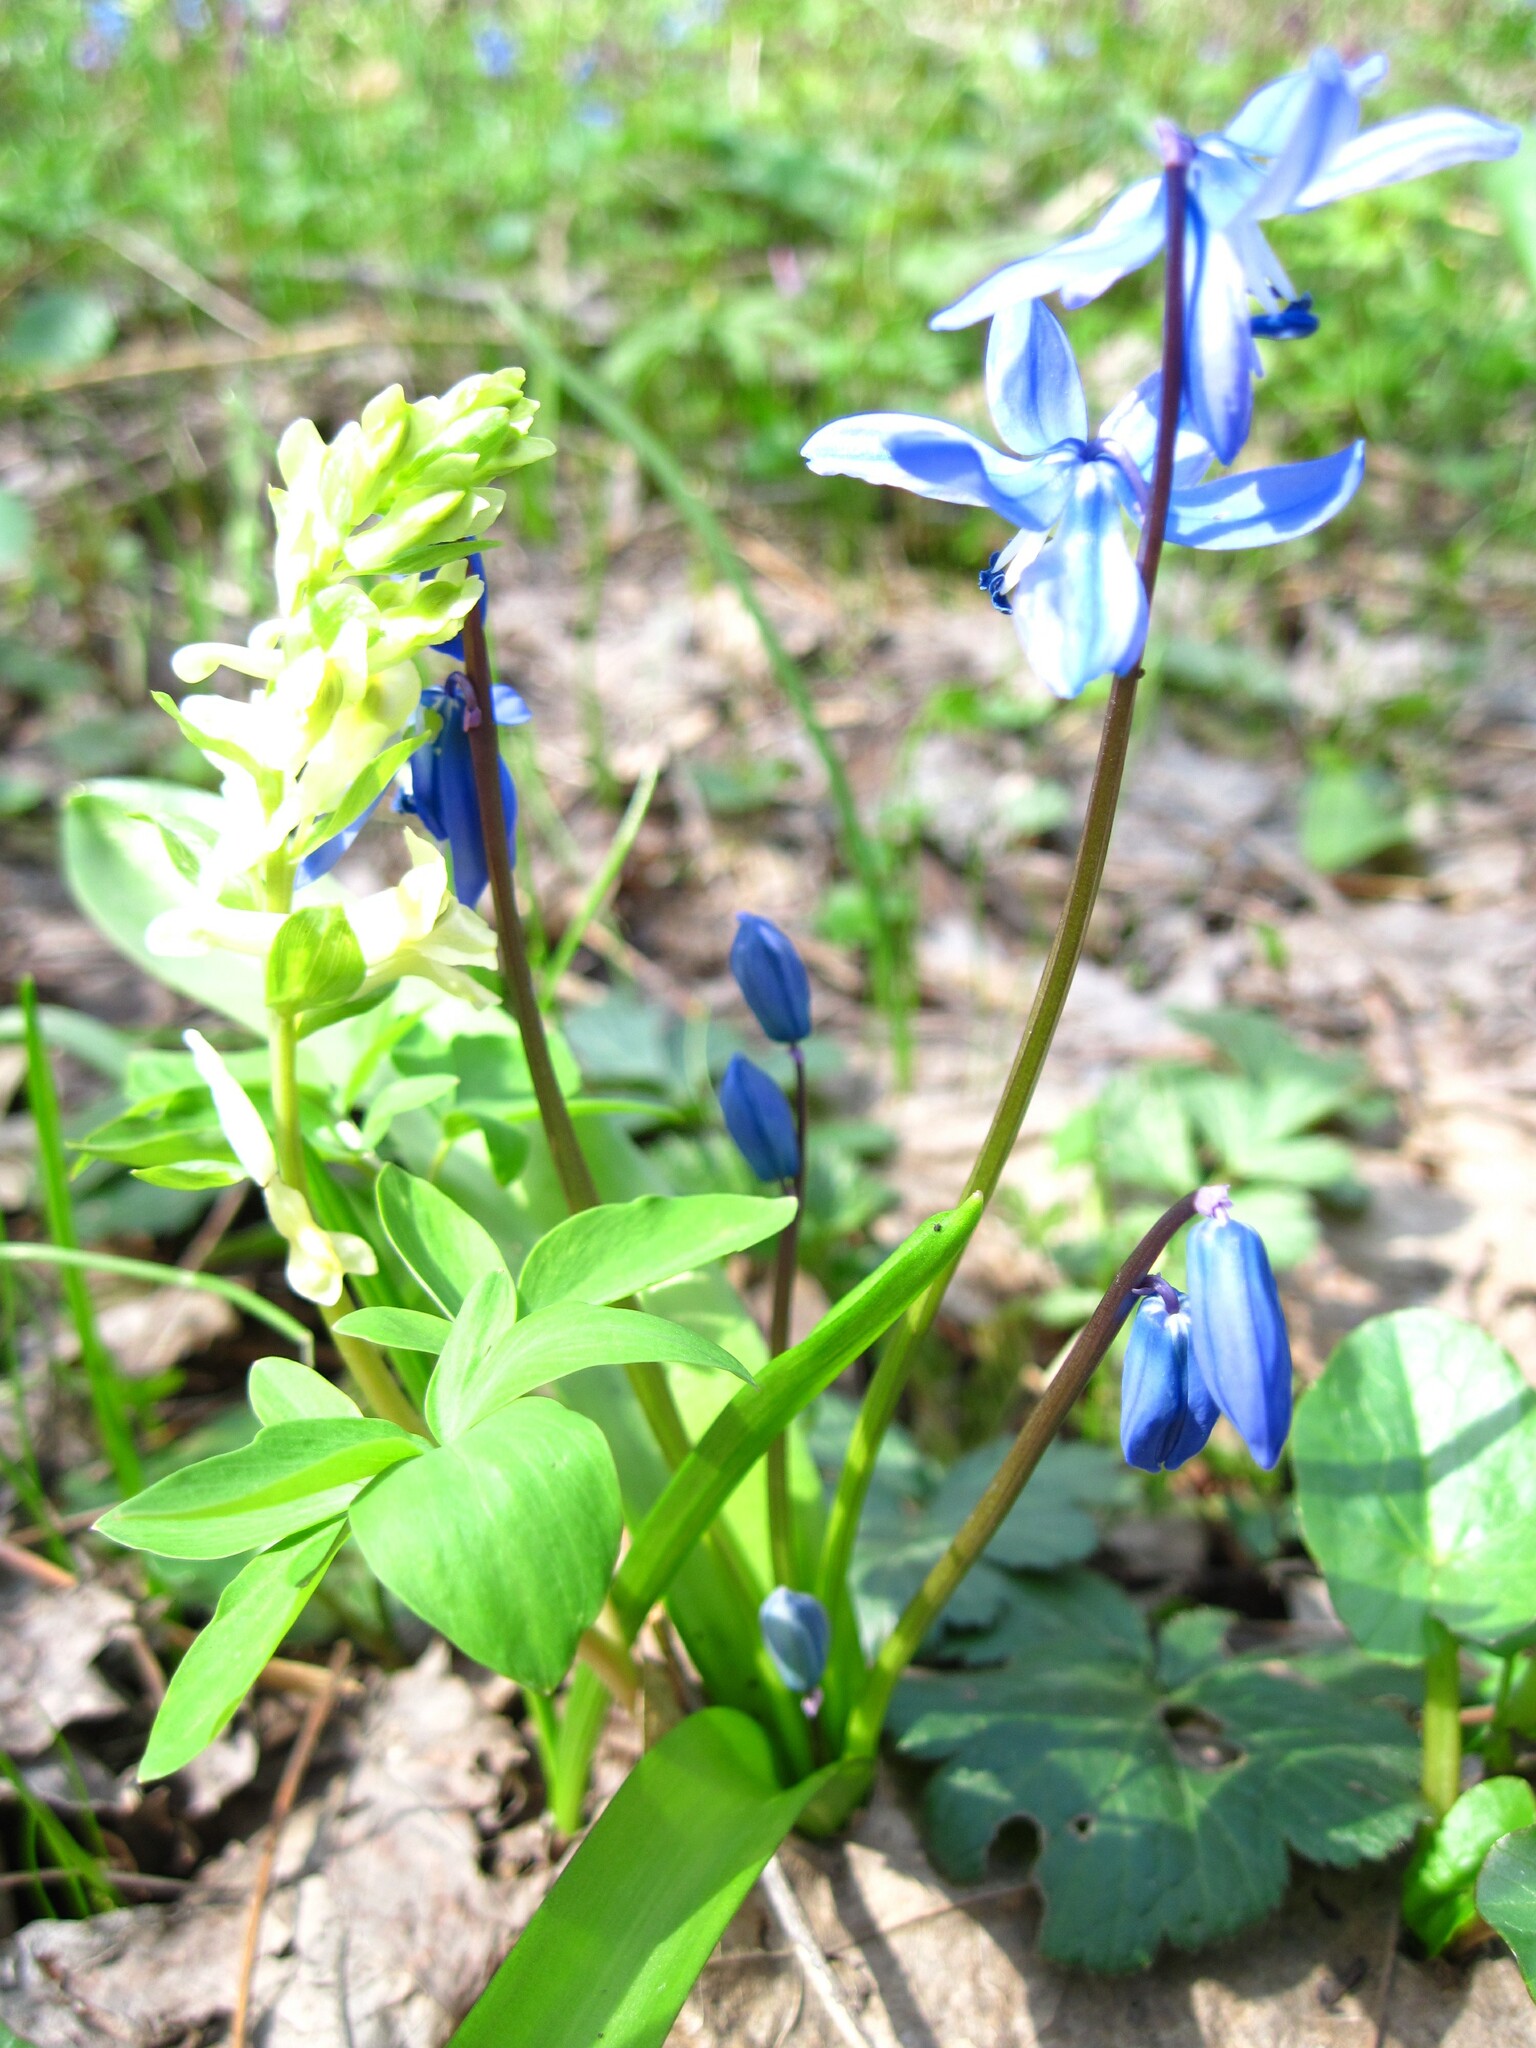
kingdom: Plantae
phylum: Tracheophyta
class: Liliopsida
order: Asparagales
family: Asparagaceae
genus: Scilla
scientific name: Scilla siberica
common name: Siberian squill
